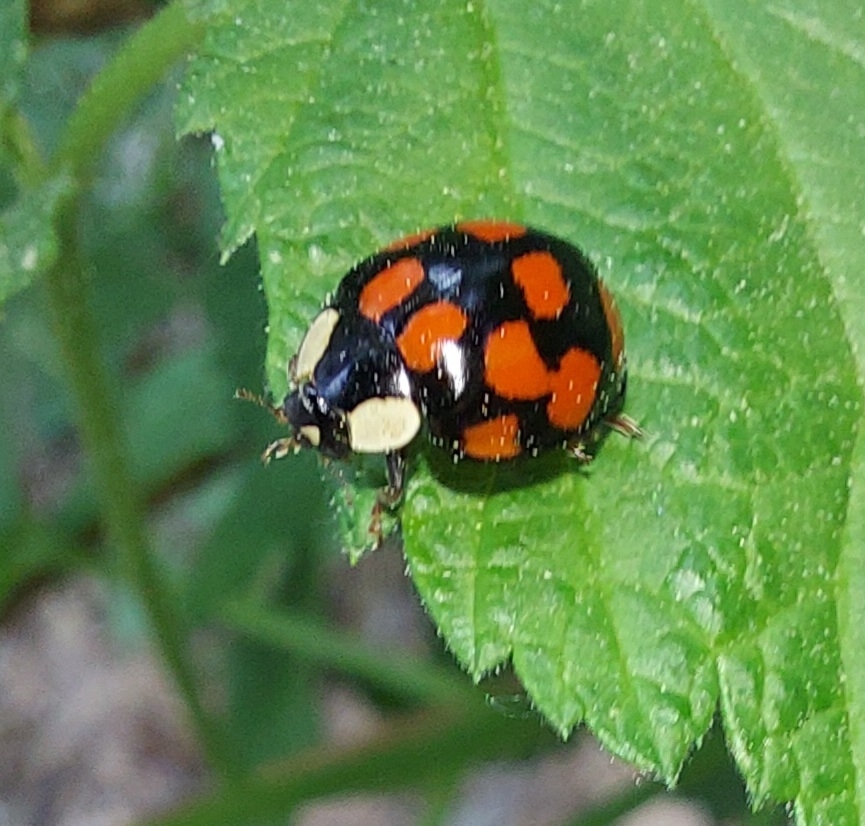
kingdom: Animalia
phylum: Arthropoda
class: Insecta
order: Coleoptera
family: Coccinellidae
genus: Harmonia
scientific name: Harmonia axyridis
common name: Harlequin ladybird
